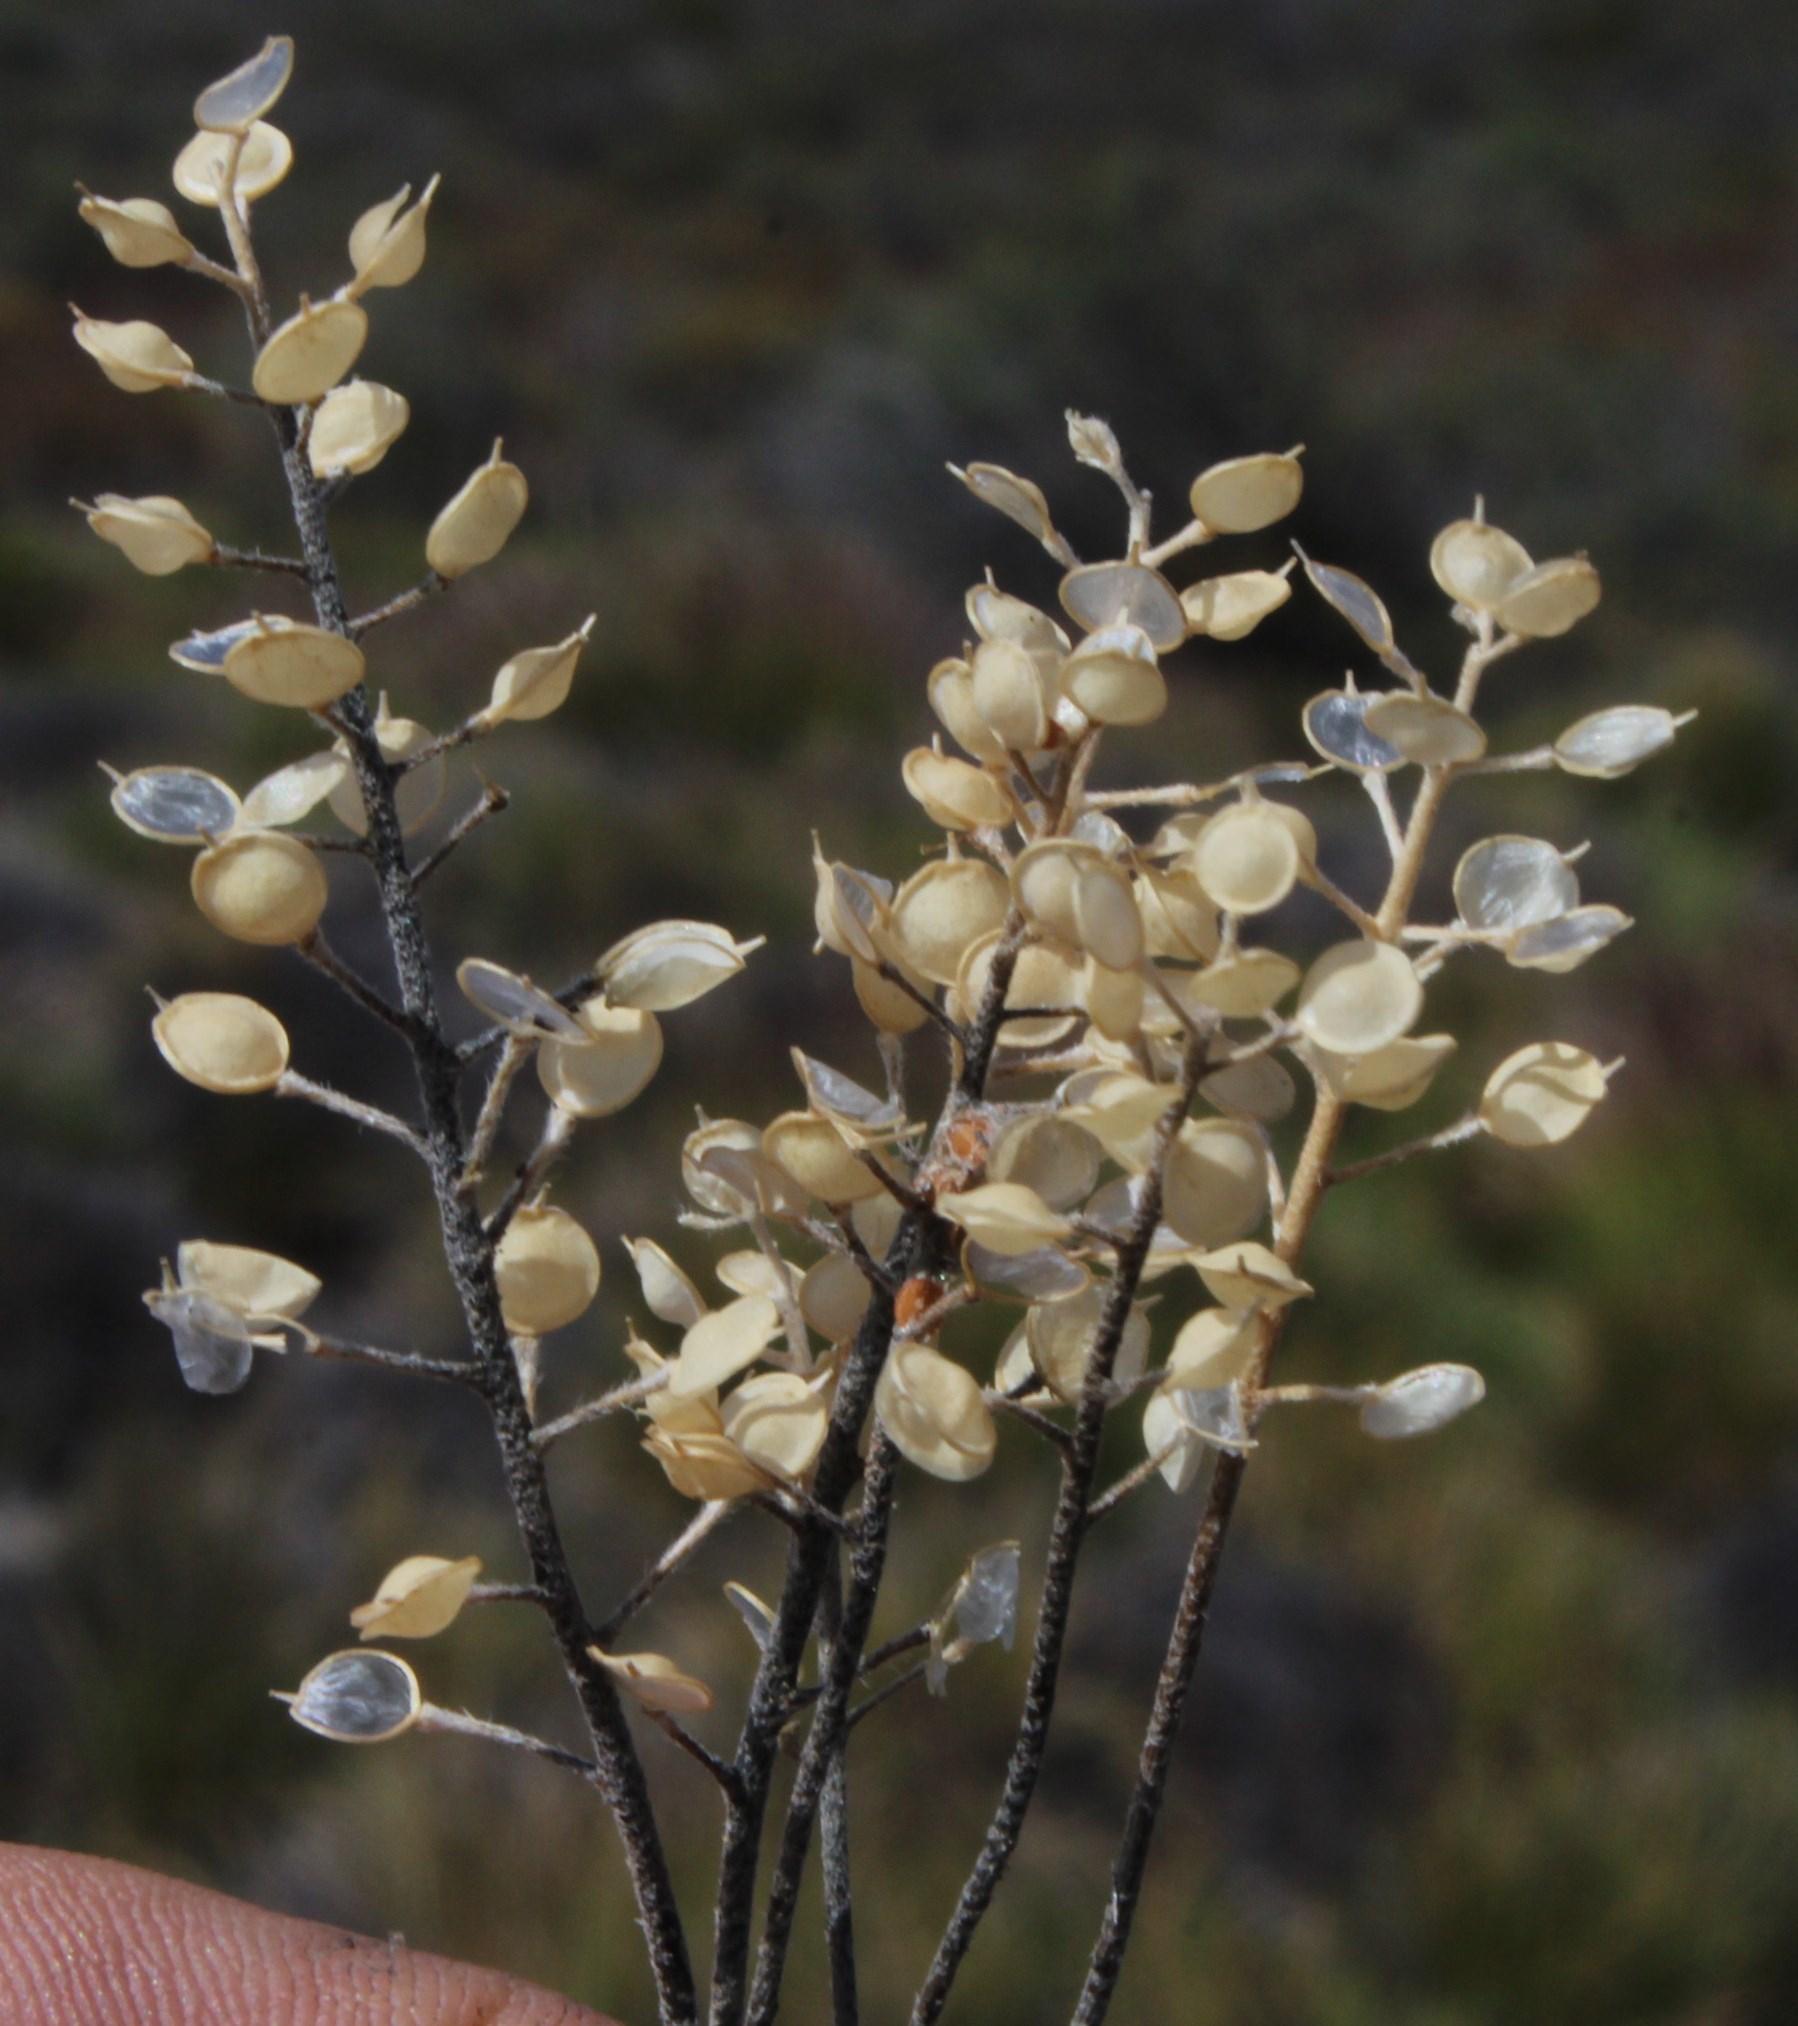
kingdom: Plantae
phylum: Tracheophyta
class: Magnoliopsida
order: Brassicales
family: Brassicaceae
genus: Alyssum
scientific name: Alyssum minutum
